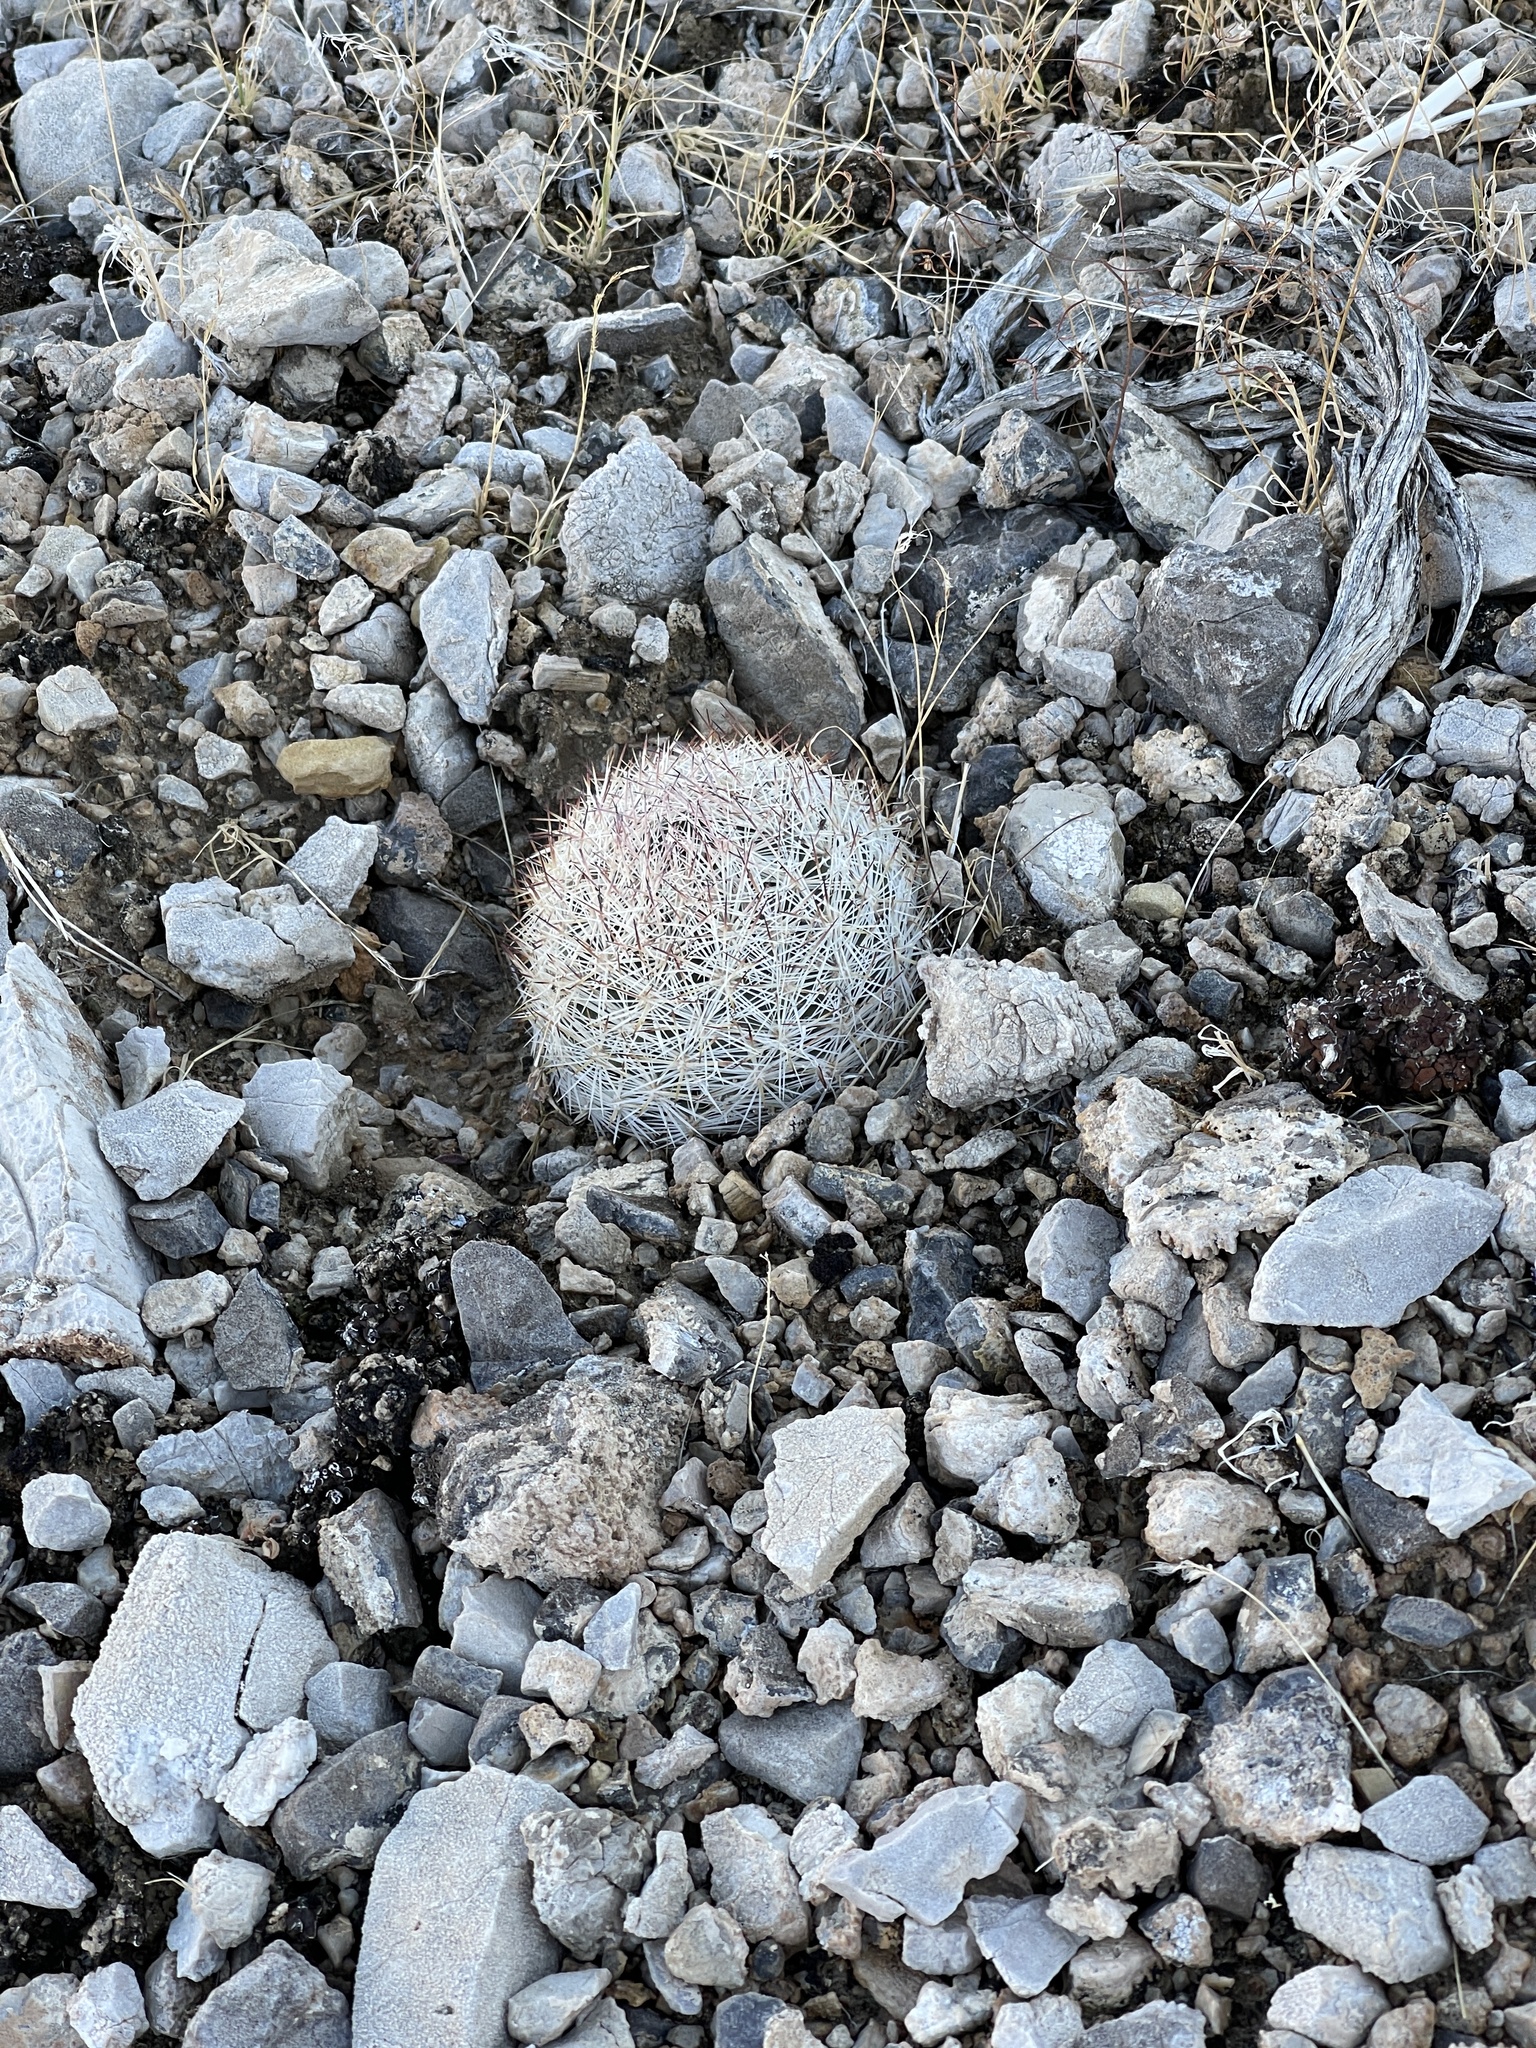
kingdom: Plantae
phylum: Tracheophyta
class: Magnoliopsida
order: Caryophyllales
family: Cactaceae
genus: Pelecyphora
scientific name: Pelecyphora dasyacantha
